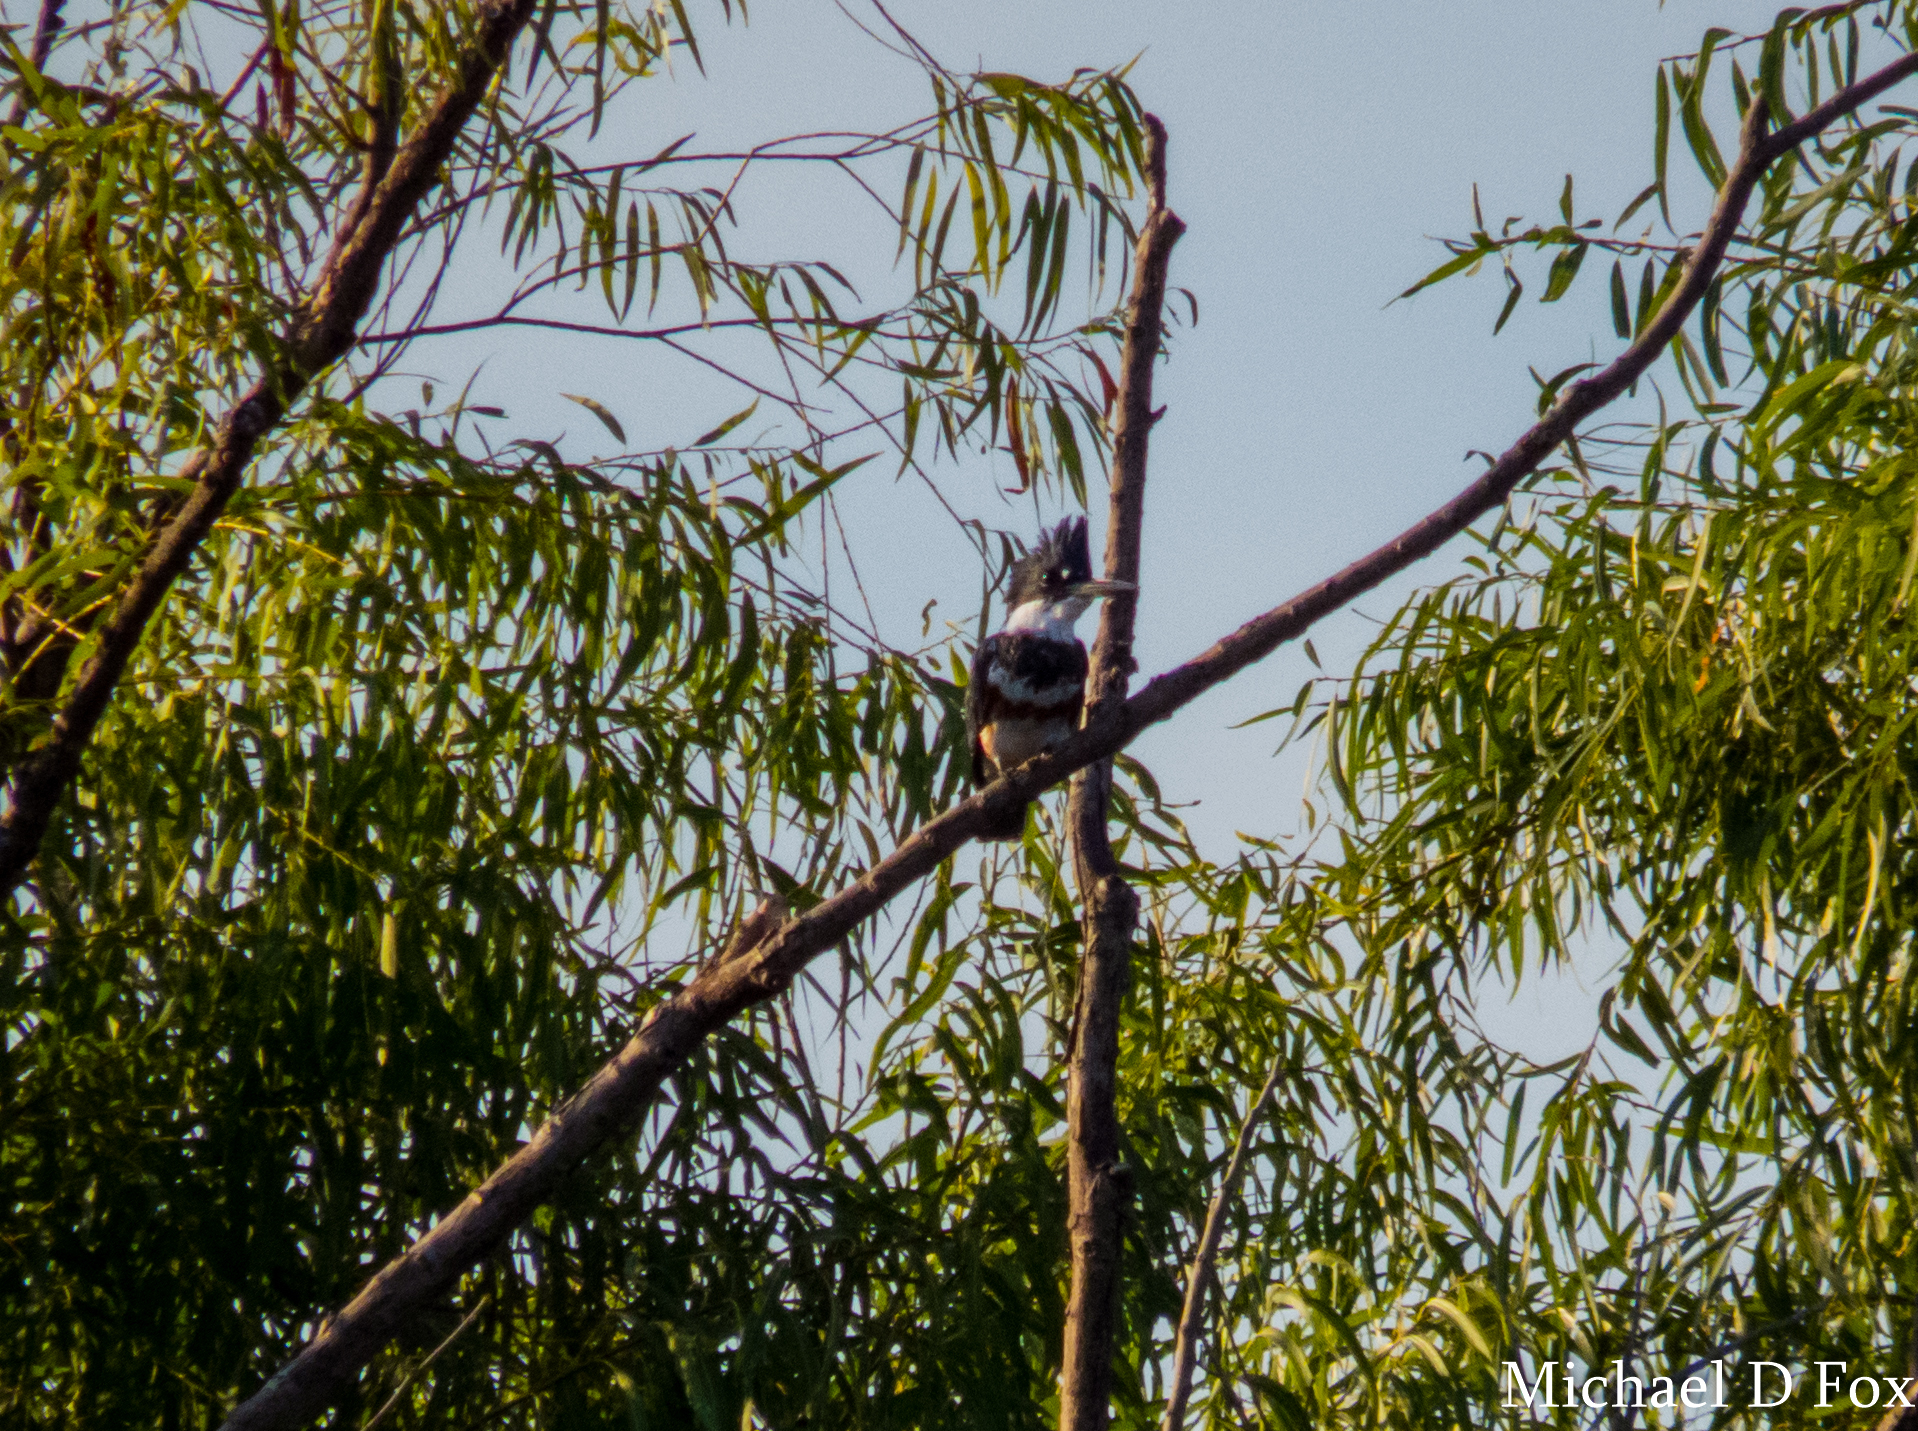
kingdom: Animalia
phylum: Chordata
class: Aves
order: Coraciiformes
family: Alcedinidae
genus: Megaceryle
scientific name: Megaceryle alcyon
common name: Belted kingfisher
